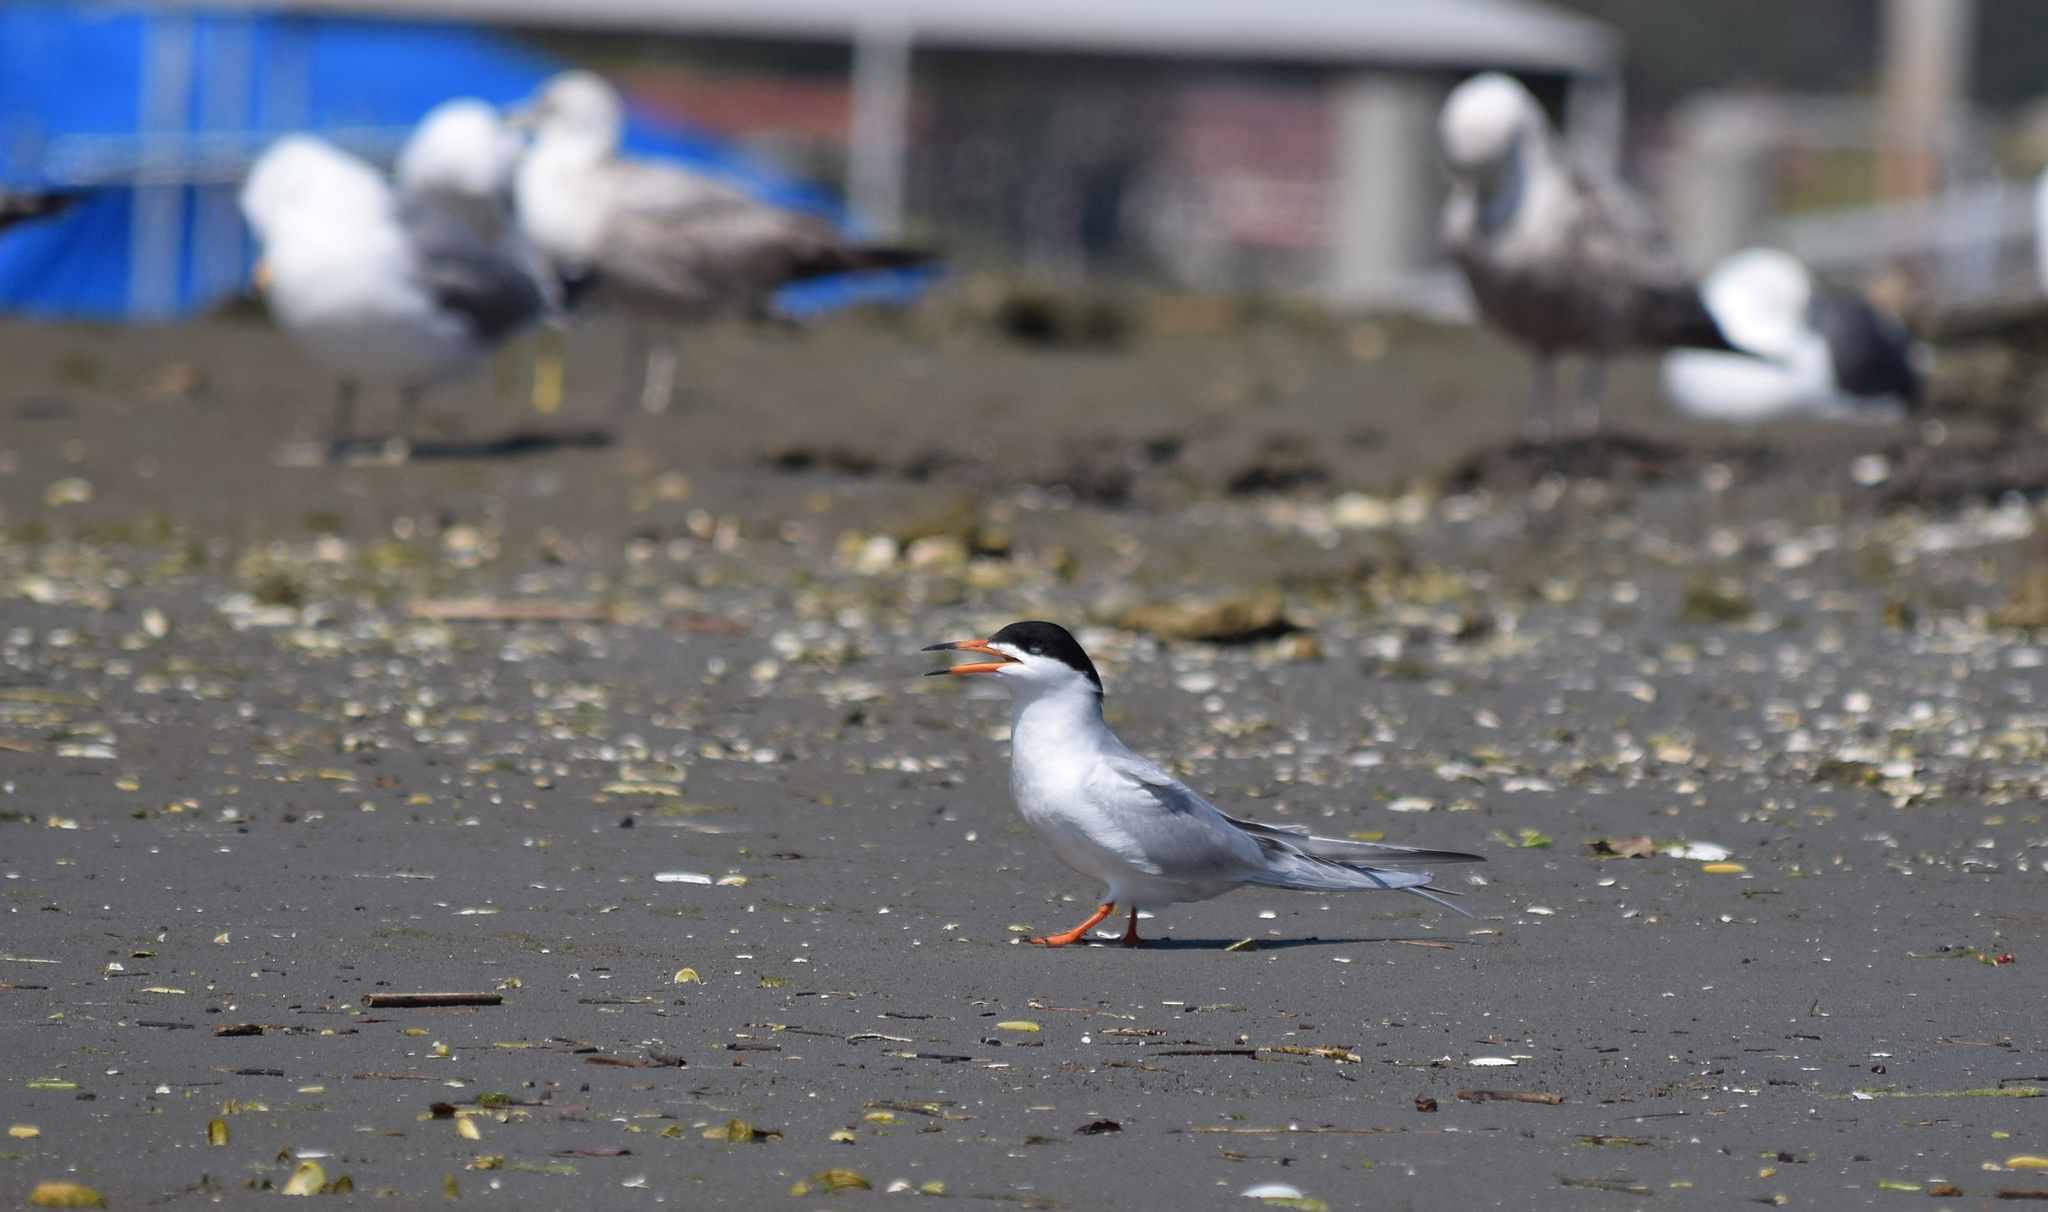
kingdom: Animalia
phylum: Chordata
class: Aves
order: Charadriiformes
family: Laridae
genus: Sterna
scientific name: Sterna forsteri
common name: Forster's tern
